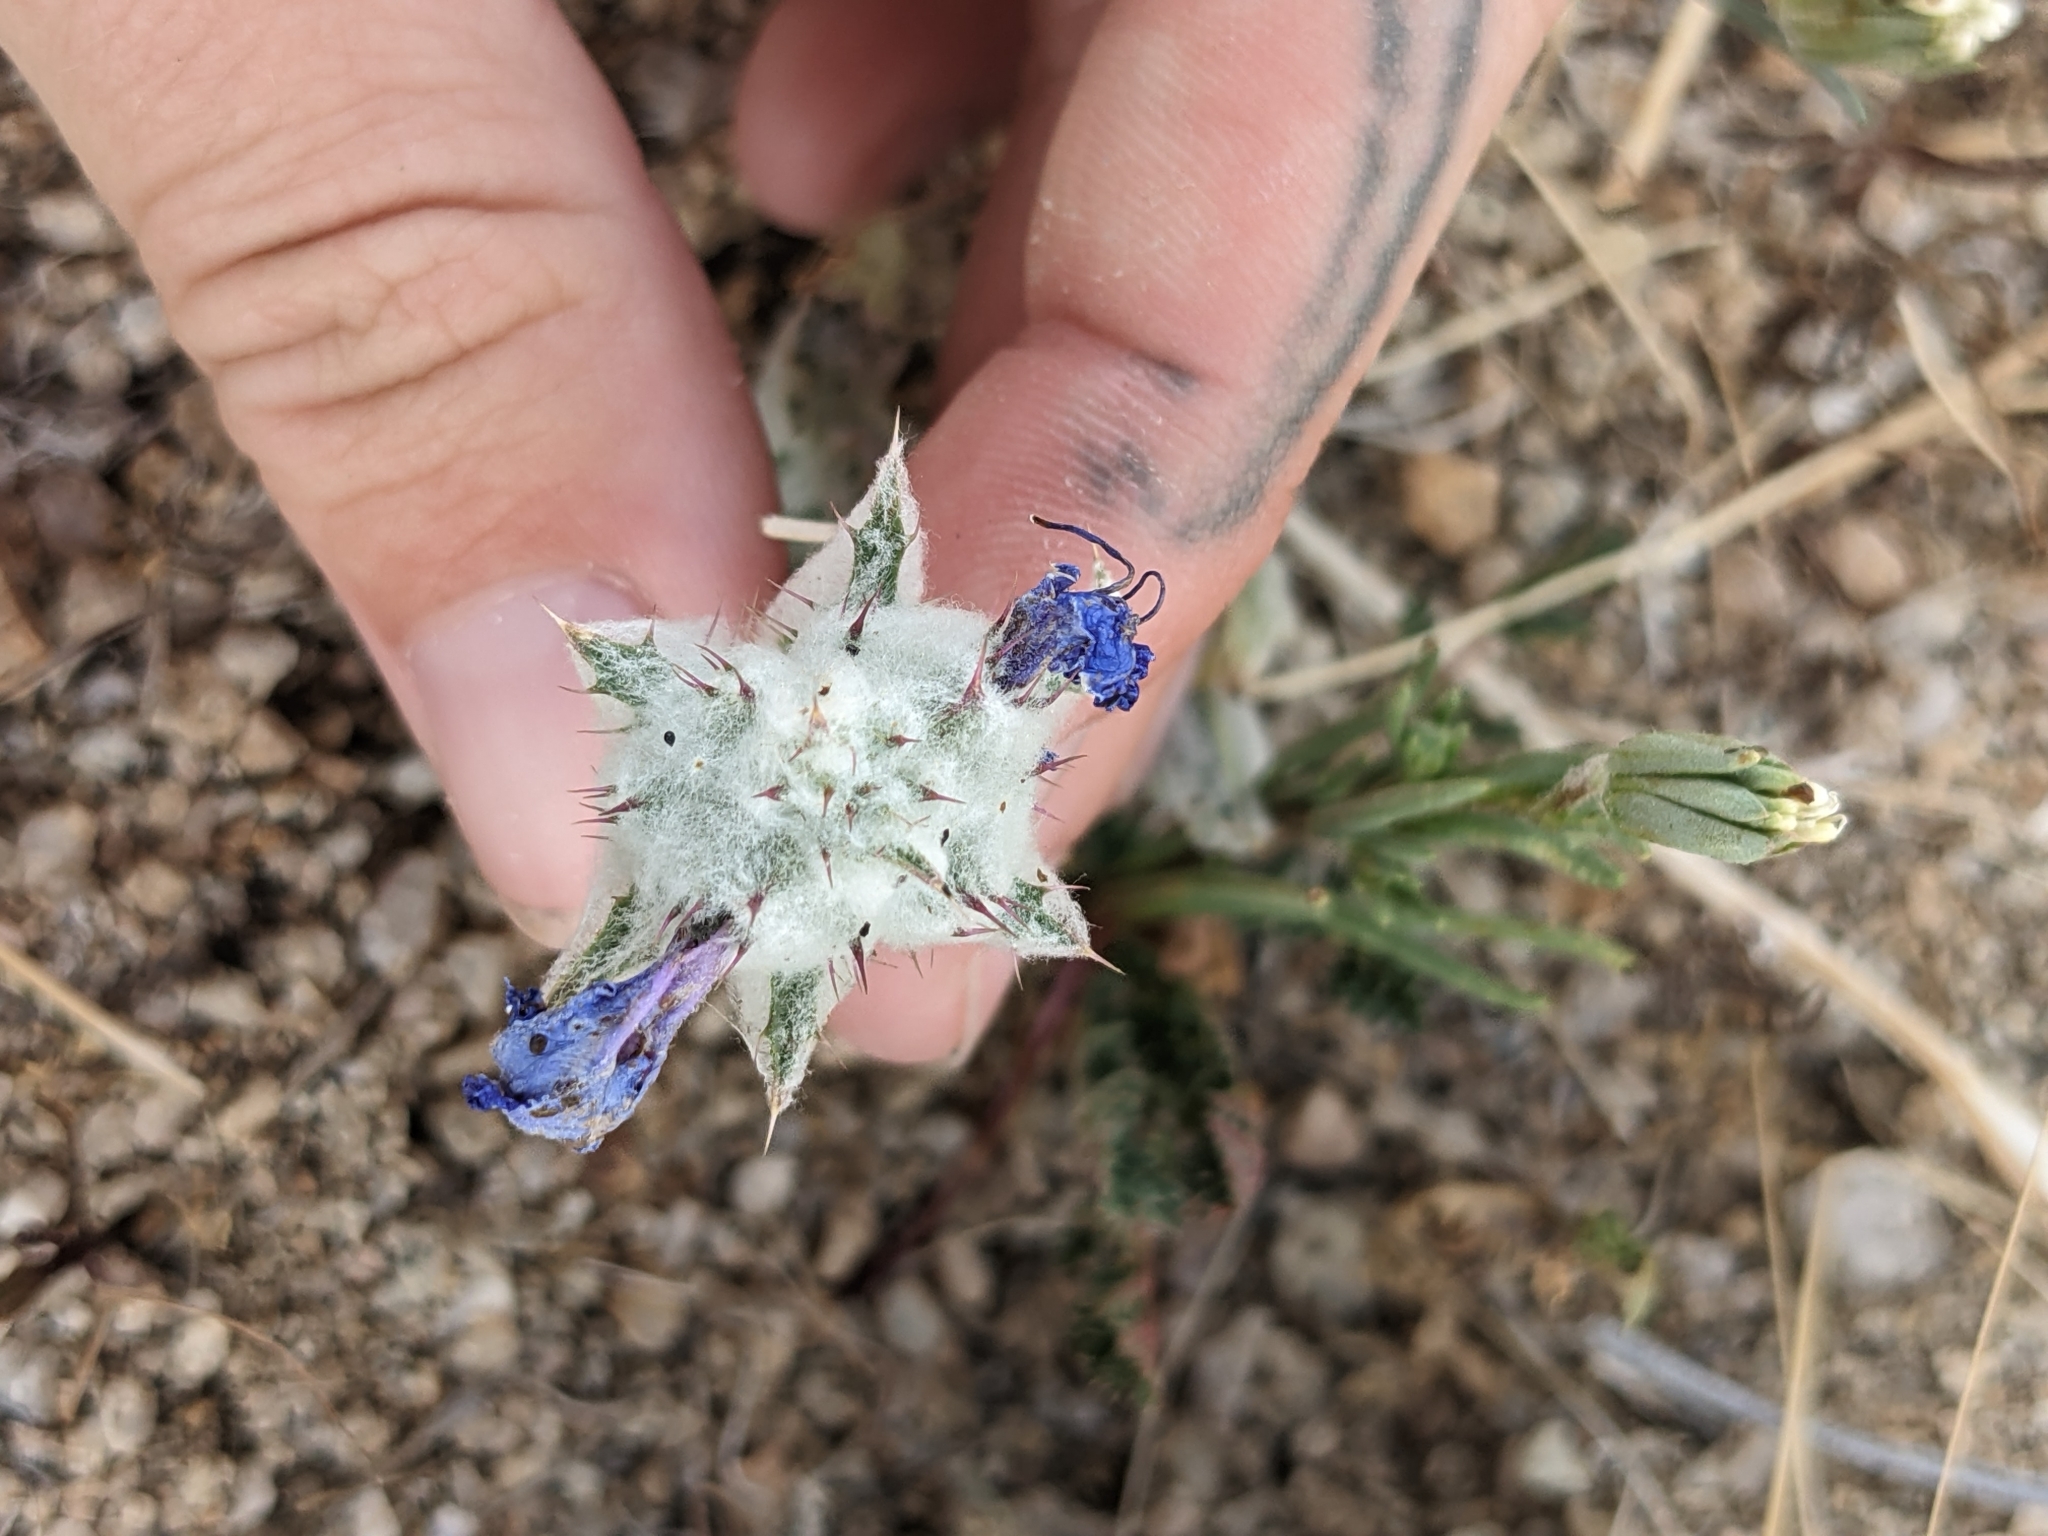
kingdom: Plantae
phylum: Tracheophyta
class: Magnoliopsida
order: Lamiales
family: Lamiaceae
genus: Salvia
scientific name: Salvia carduacea
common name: Thistle sage
